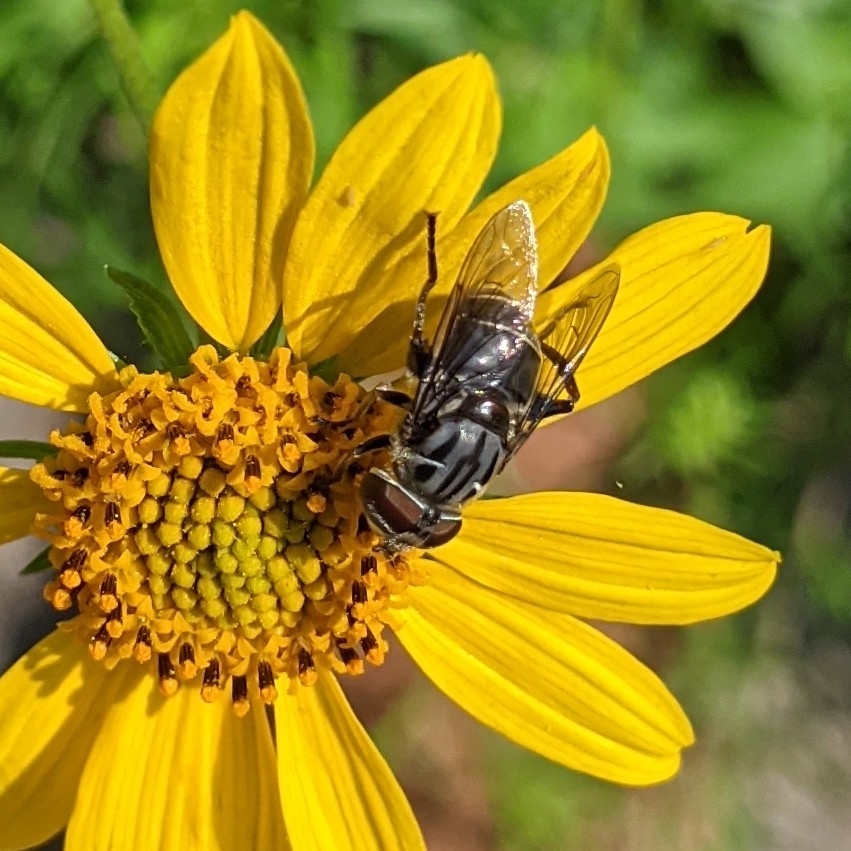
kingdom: Animalia
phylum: Arthropoda
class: Insecta
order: Diptera
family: Syrphidae
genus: Palpada
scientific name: Palpada furcata
